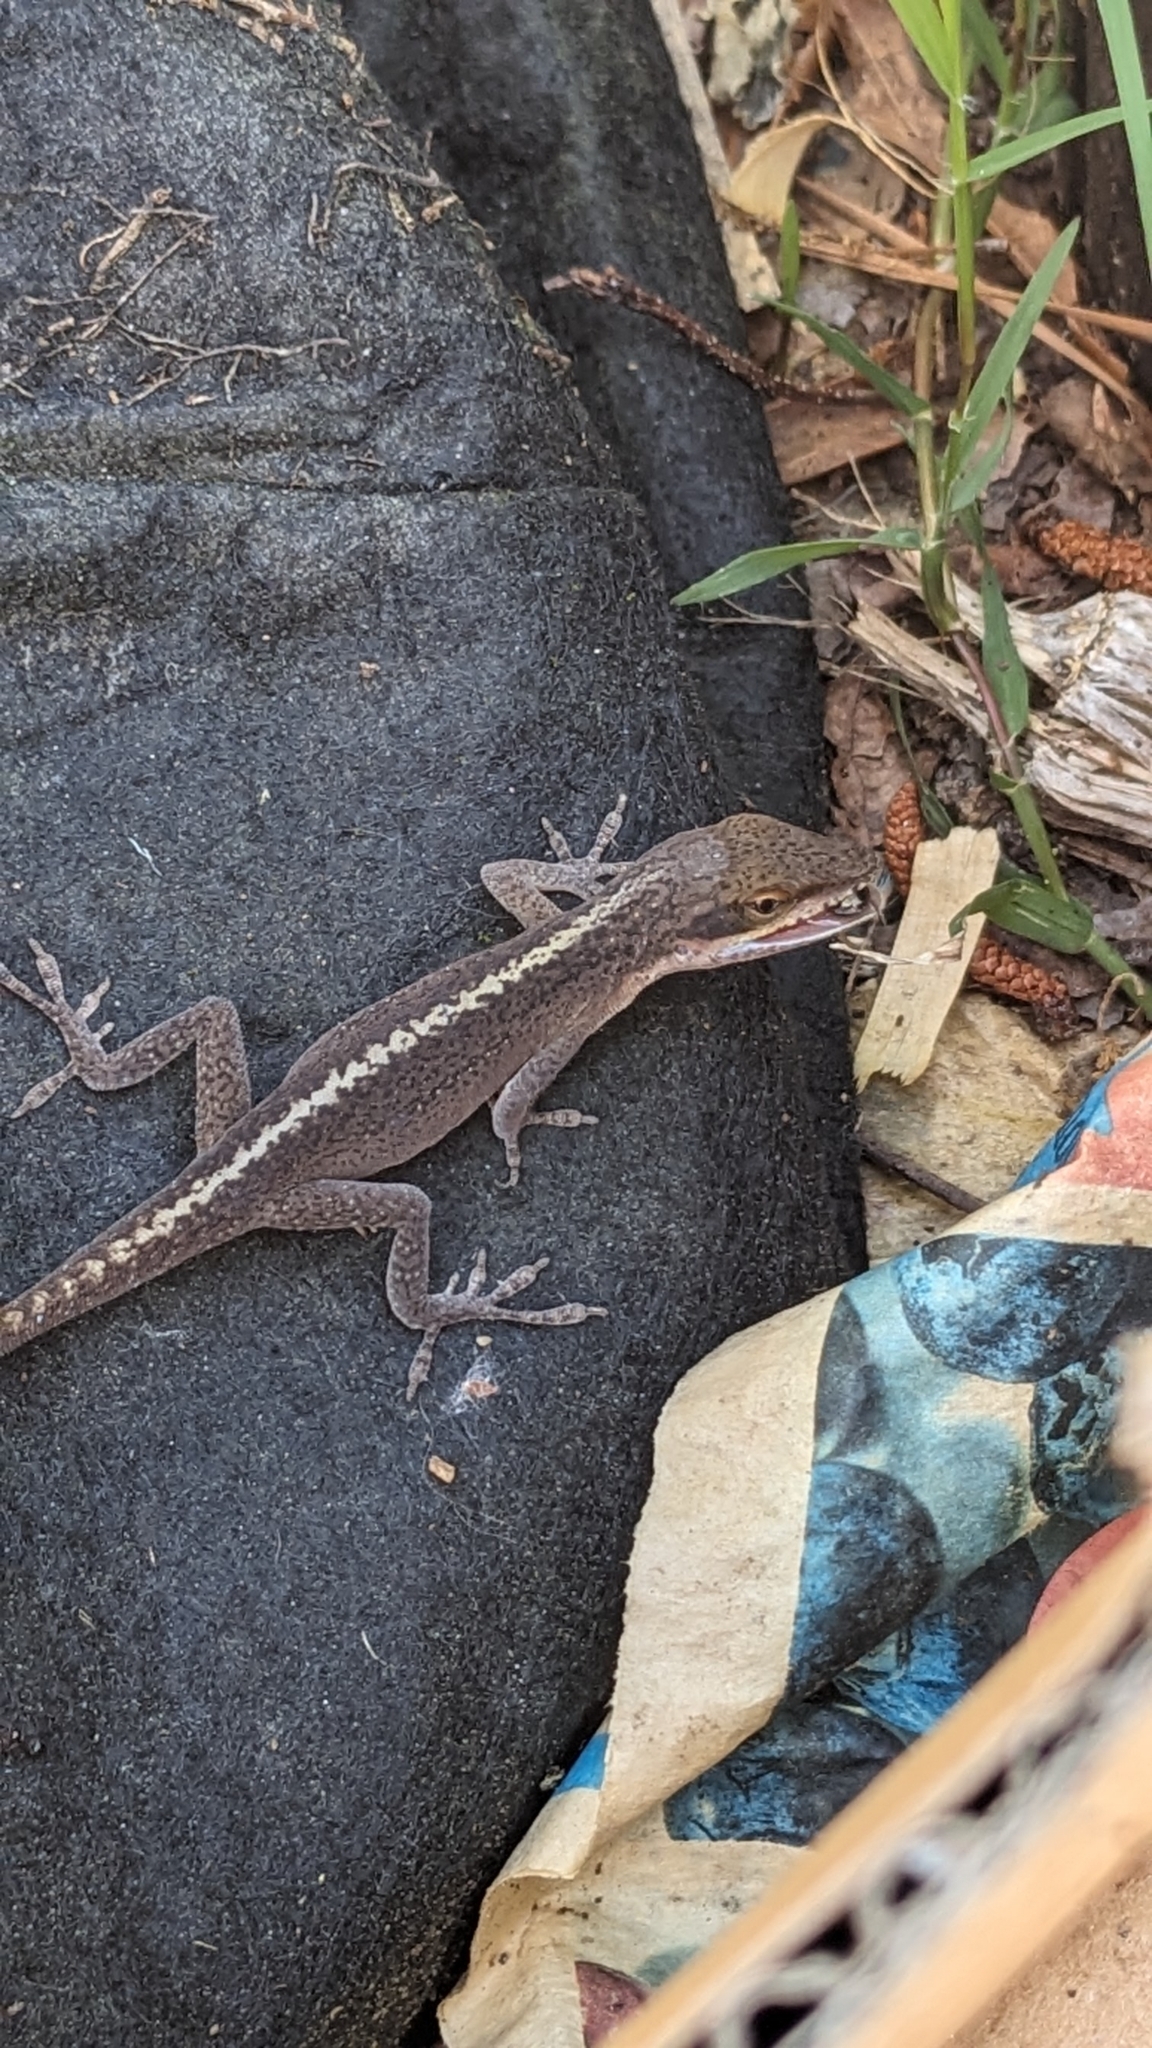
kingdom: Animalia
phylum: Chordata
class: Squamata
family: Dactyloidae
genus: Anolis
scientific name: Anolis carolinensis
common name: Green anole
